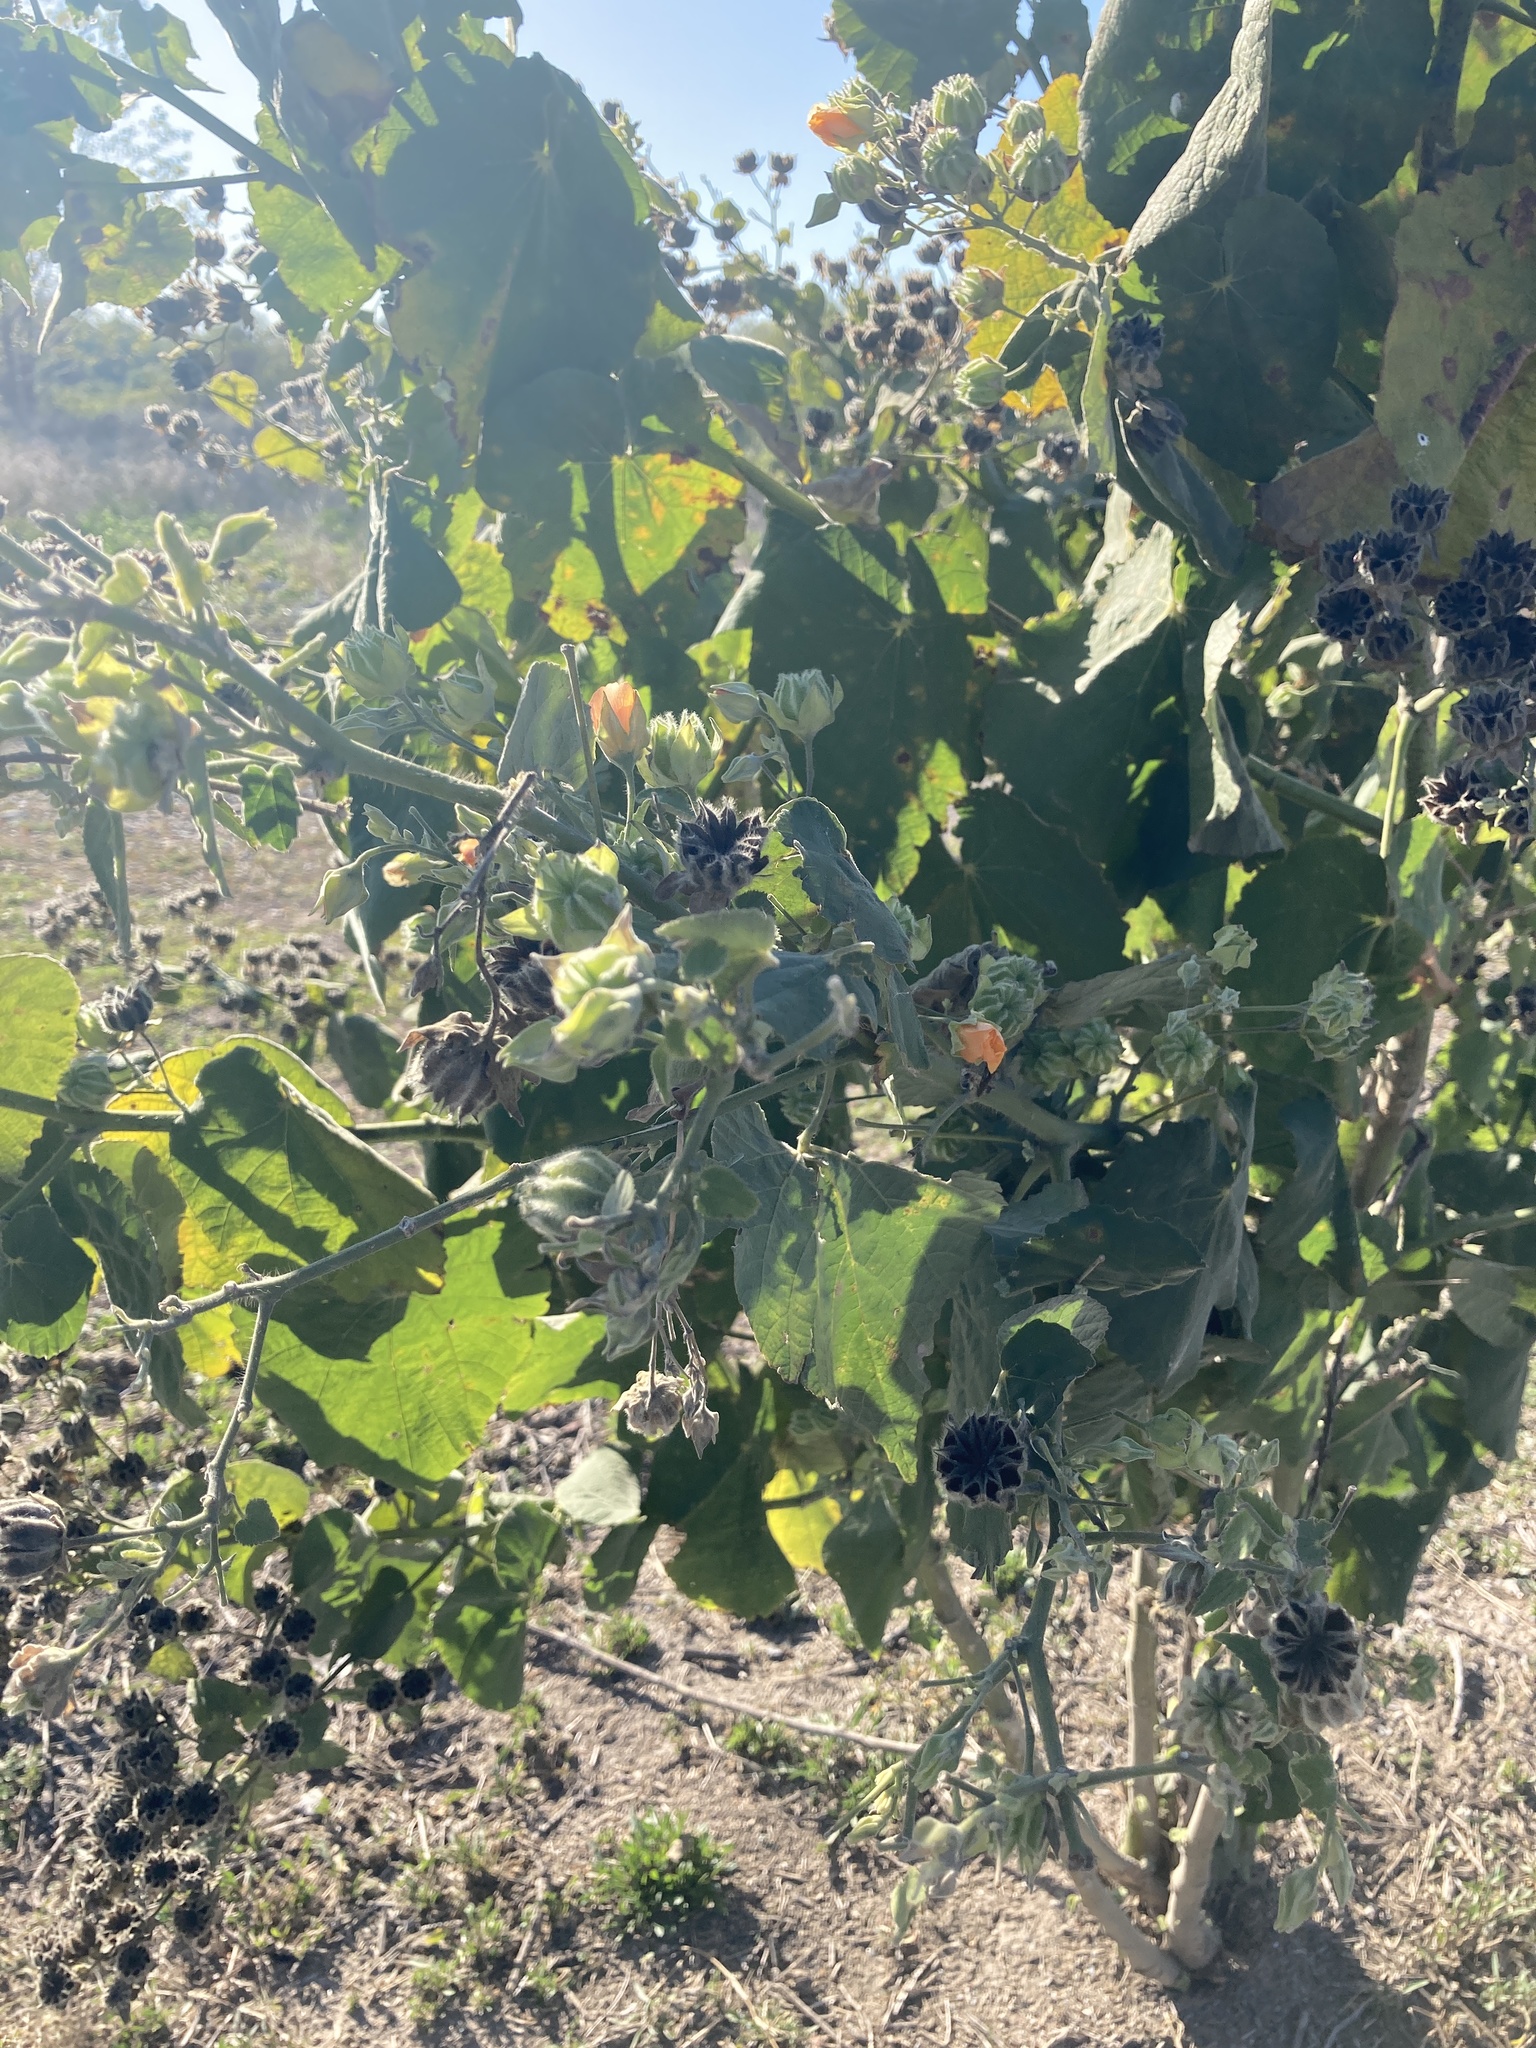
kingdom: Plantae
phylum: Tracheophyta
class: Magnoliopsida
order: Malvales
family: Malvaceae
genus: Abutilon
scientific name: Abutilon grandifolium
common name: Hairy abutilon
